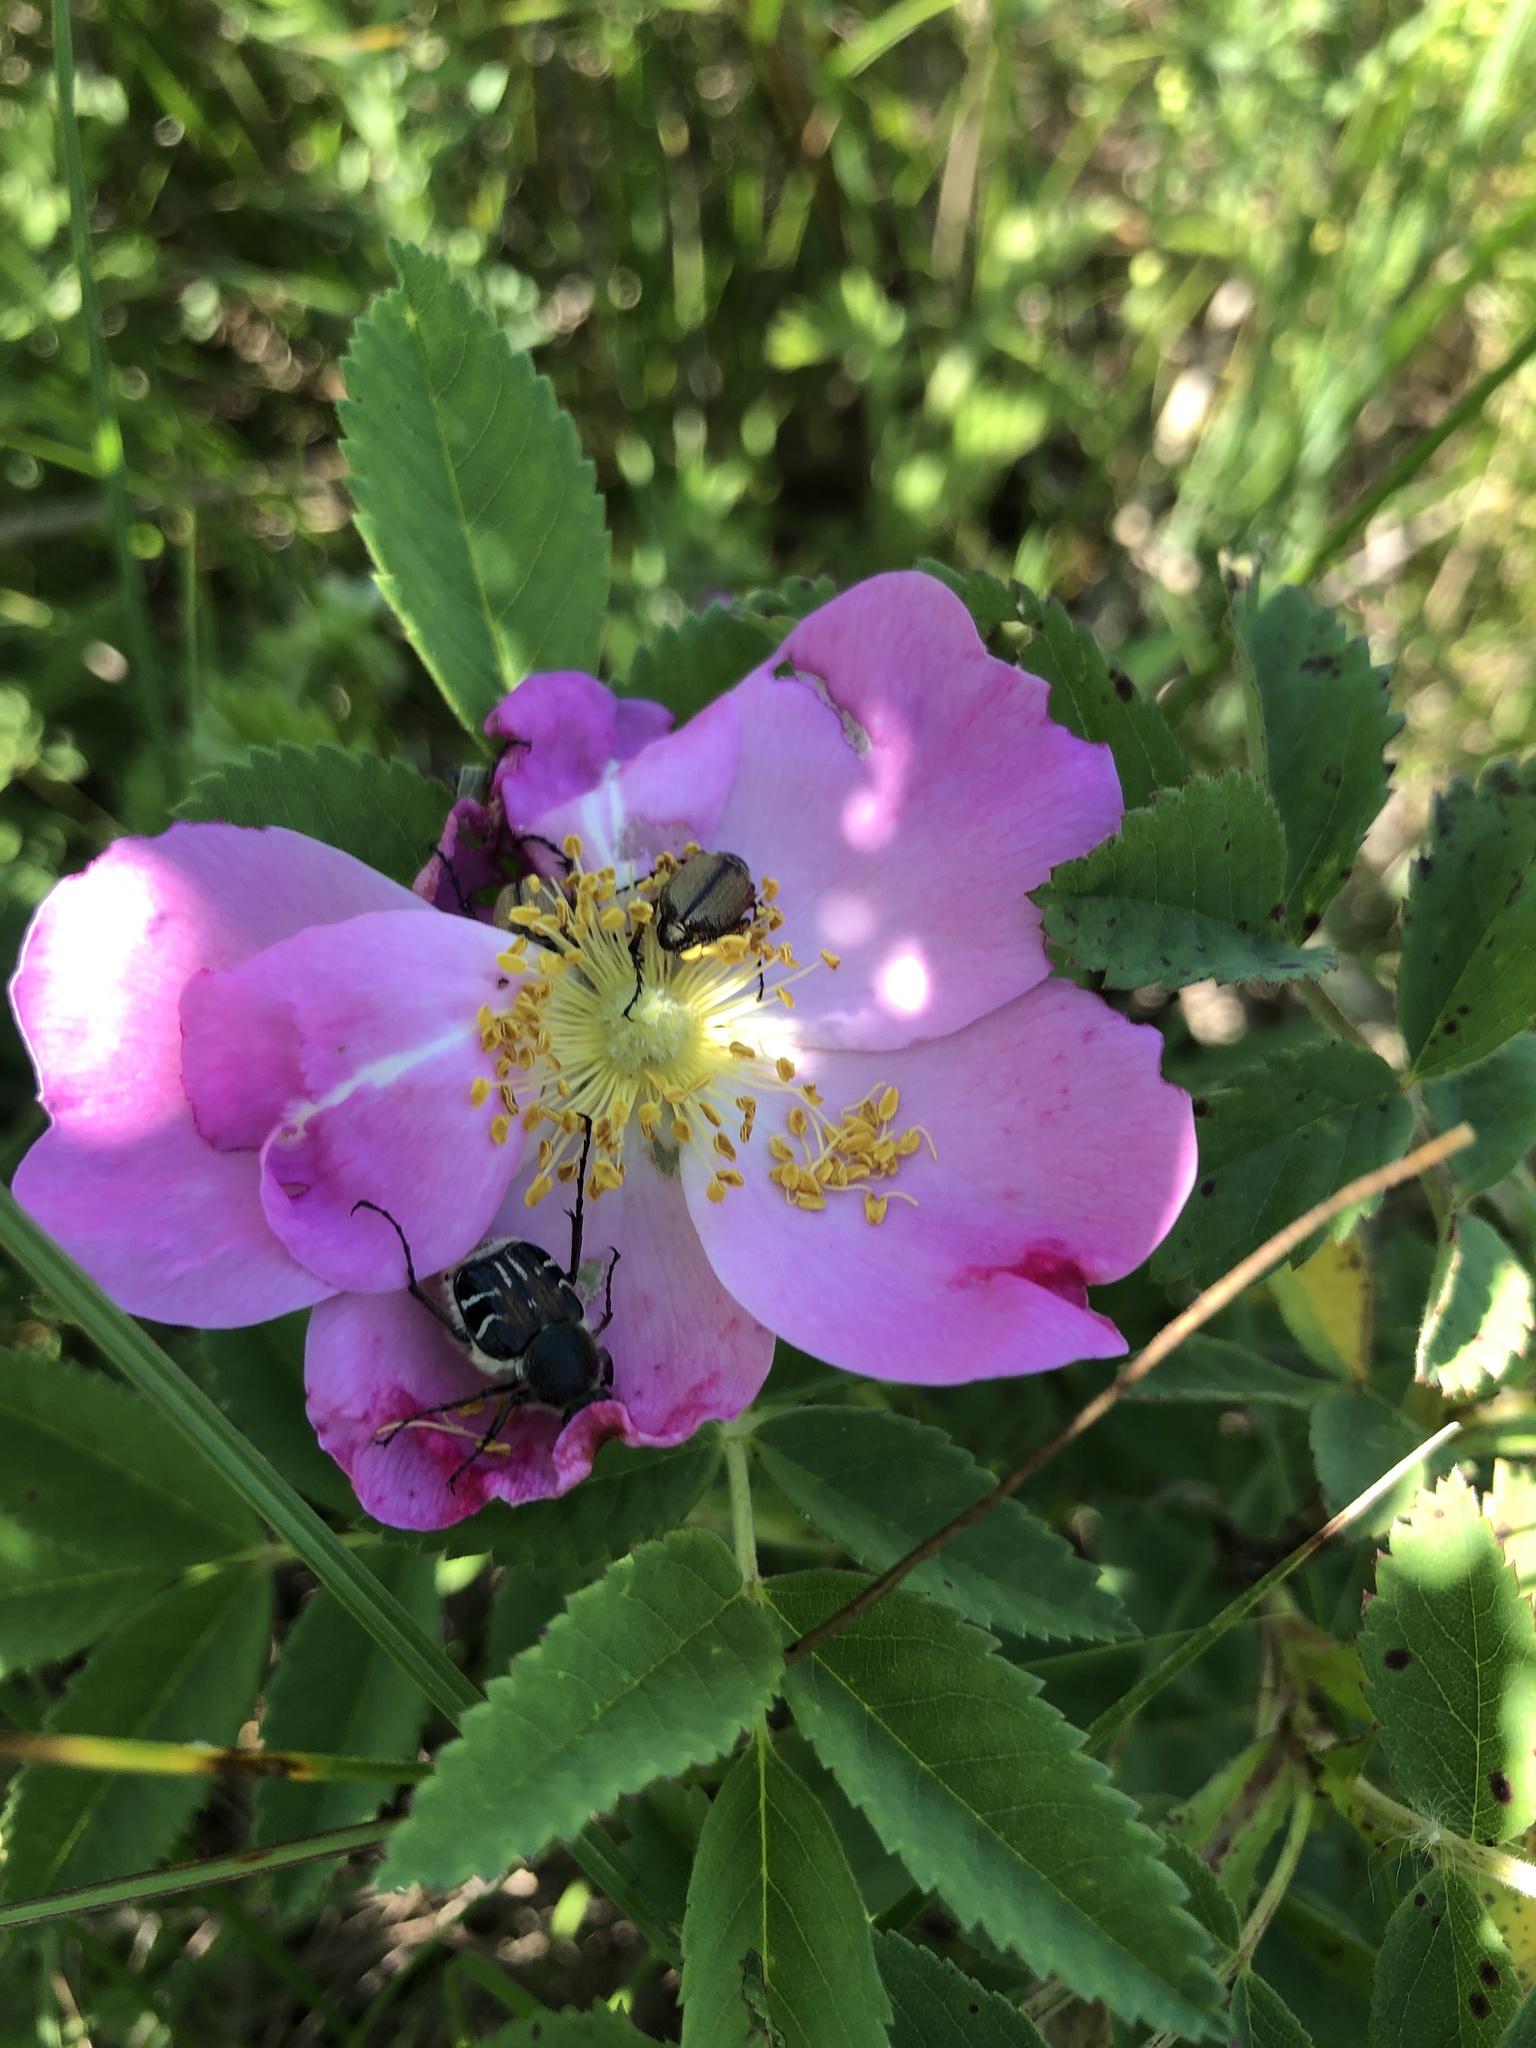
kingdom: Plantae
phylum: Tracheophyta
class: Magnoliopsida
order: Rosales
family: Rosaceae
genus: Rosa
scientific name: Rosa arkansana
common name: Prairie rose
